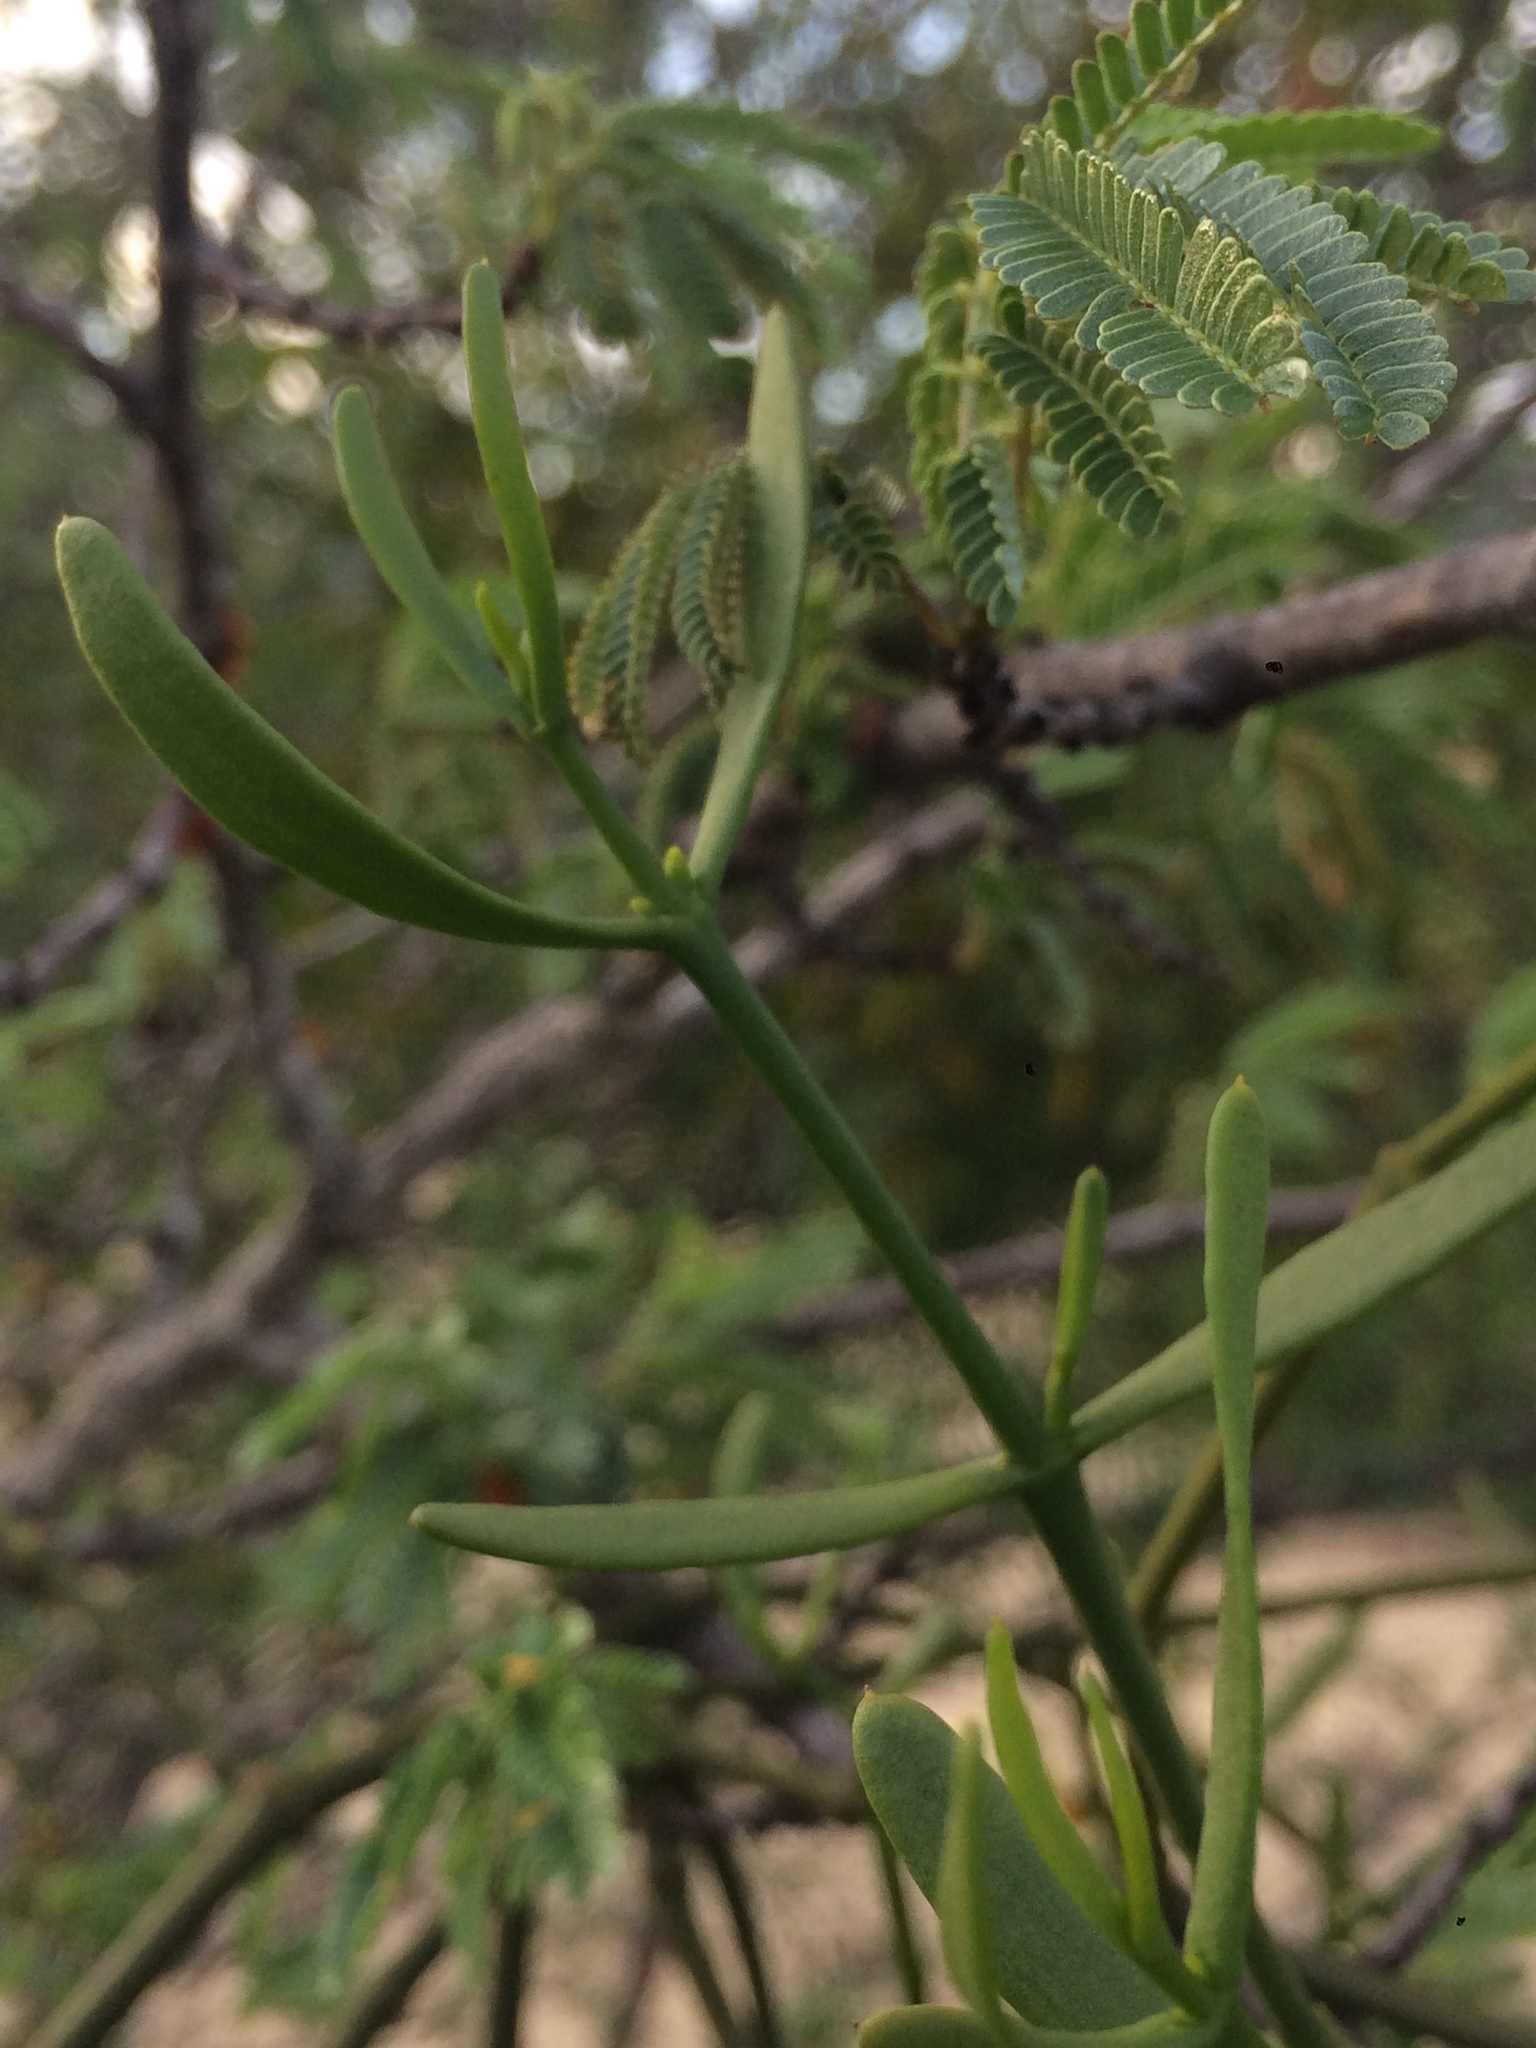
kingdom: Plantae
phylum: Tracheophyta
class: Magnoliopsida
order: Santalales
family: Viscaceae
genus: Phoradendron
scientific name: Phoradendron quadrangulare
